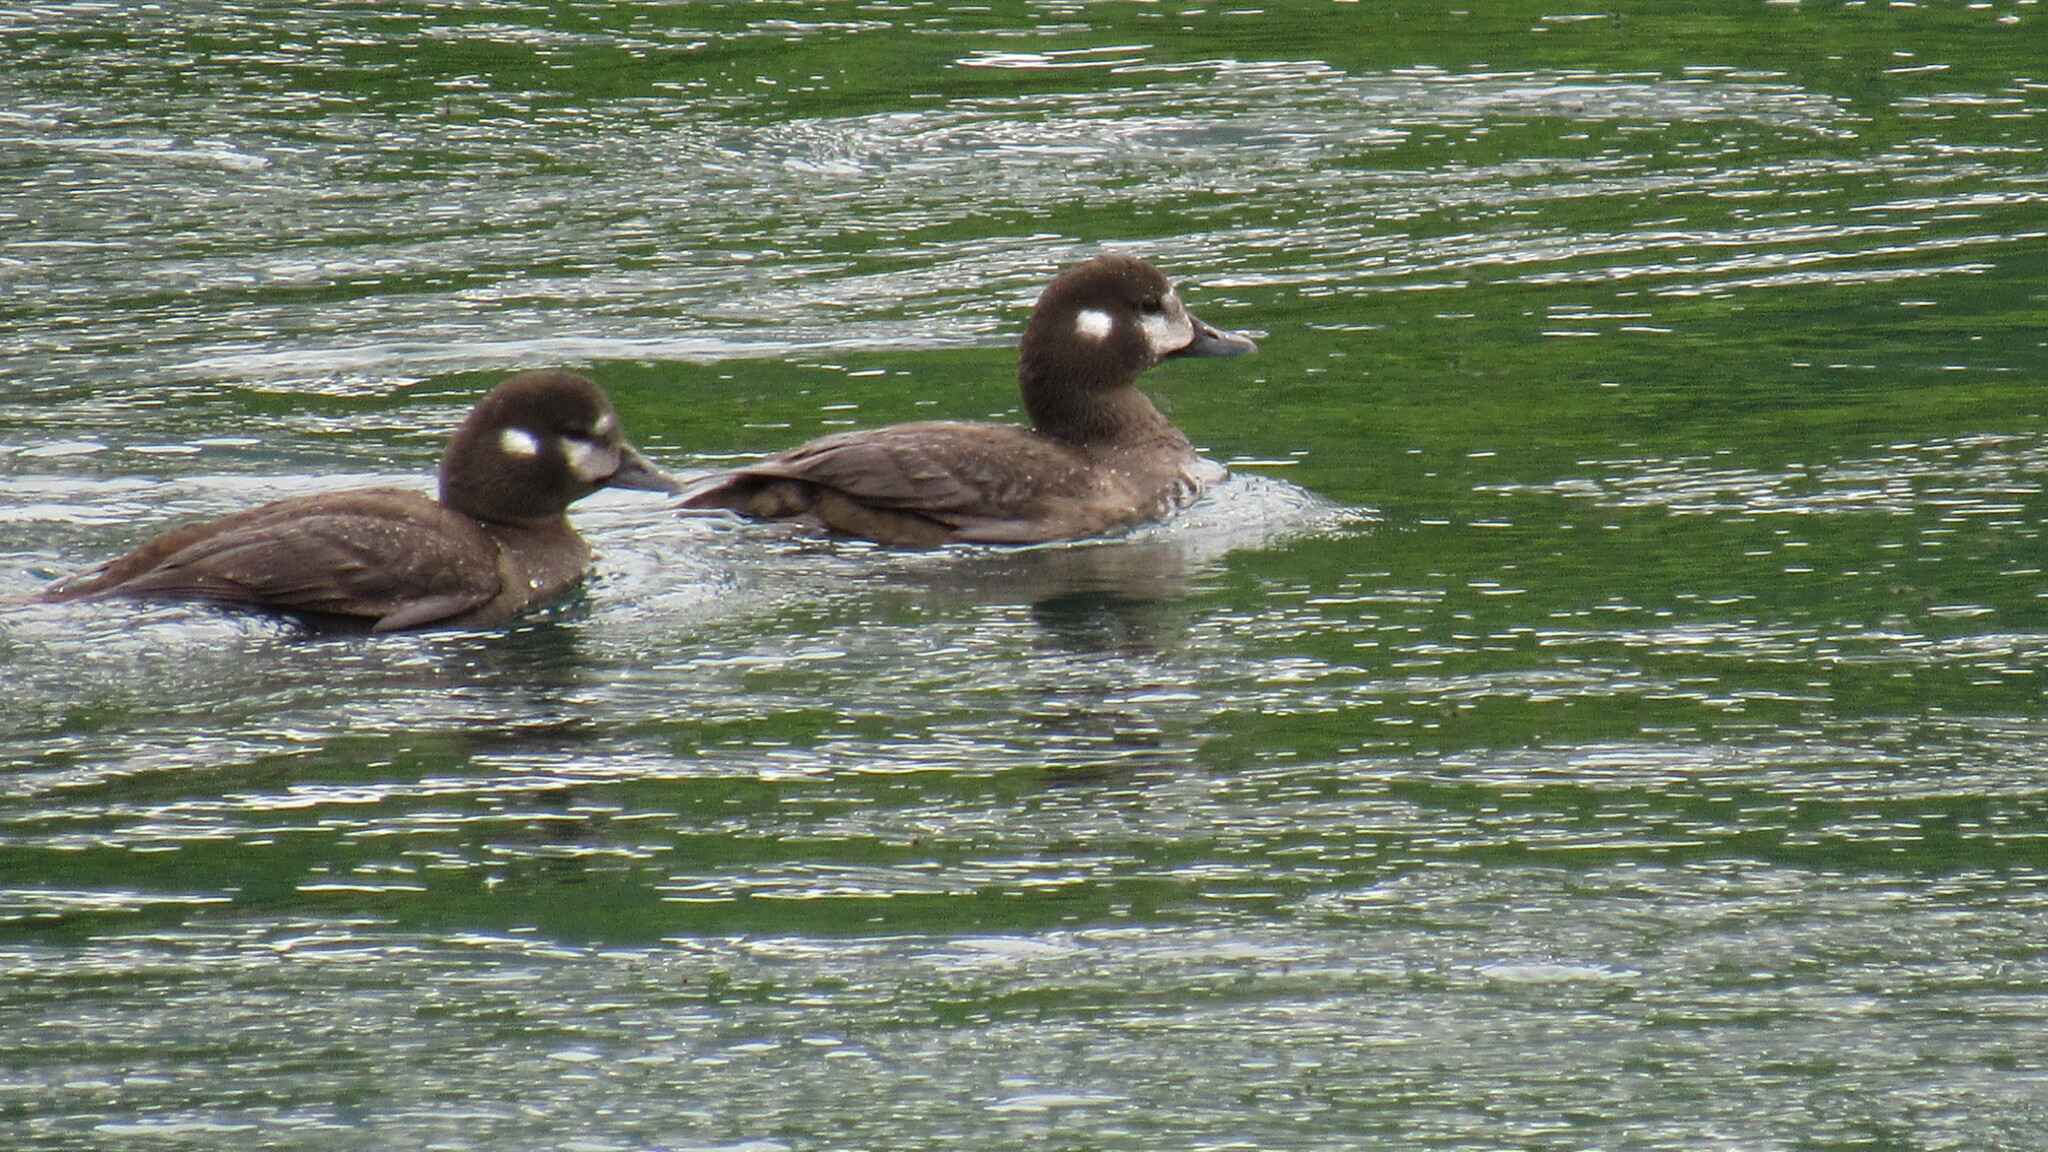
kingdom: Animalia
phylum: Chordata
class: Aves
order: Anseriformes
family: Anatidae
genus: Histrionicus
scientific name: Histrionicus histrionicus
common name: Harlequin duck
